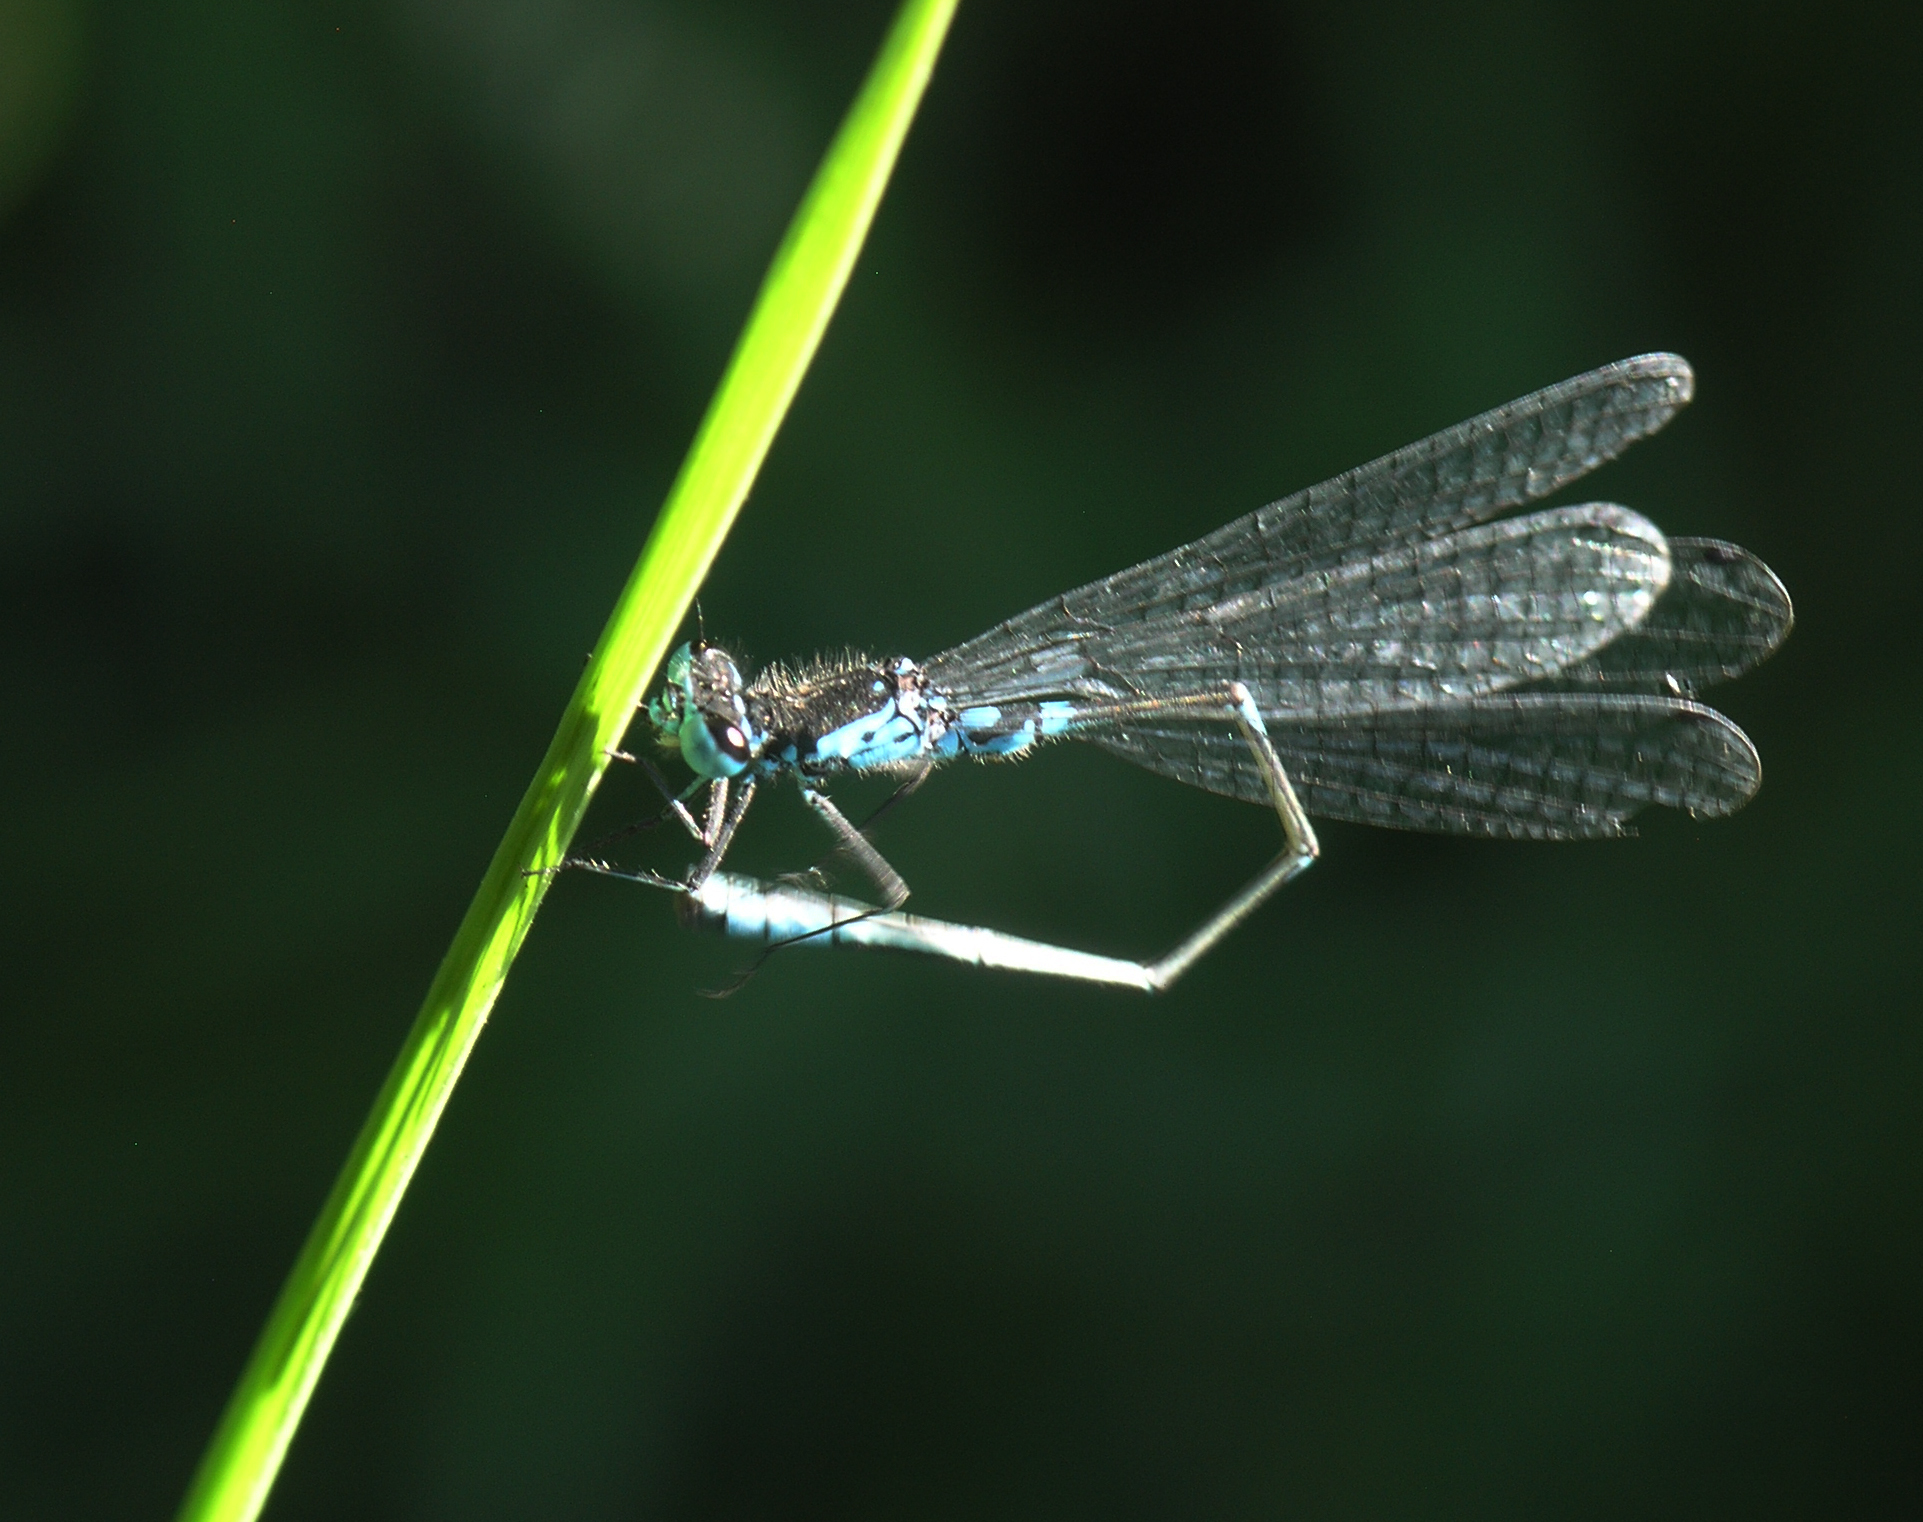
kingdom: Animalia
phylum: Arthropoda
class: Insecta
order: Odonata
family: Coenagrionidae
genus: Coenagrion
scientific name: Coenagrion pulchellum
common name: Variable bluet
